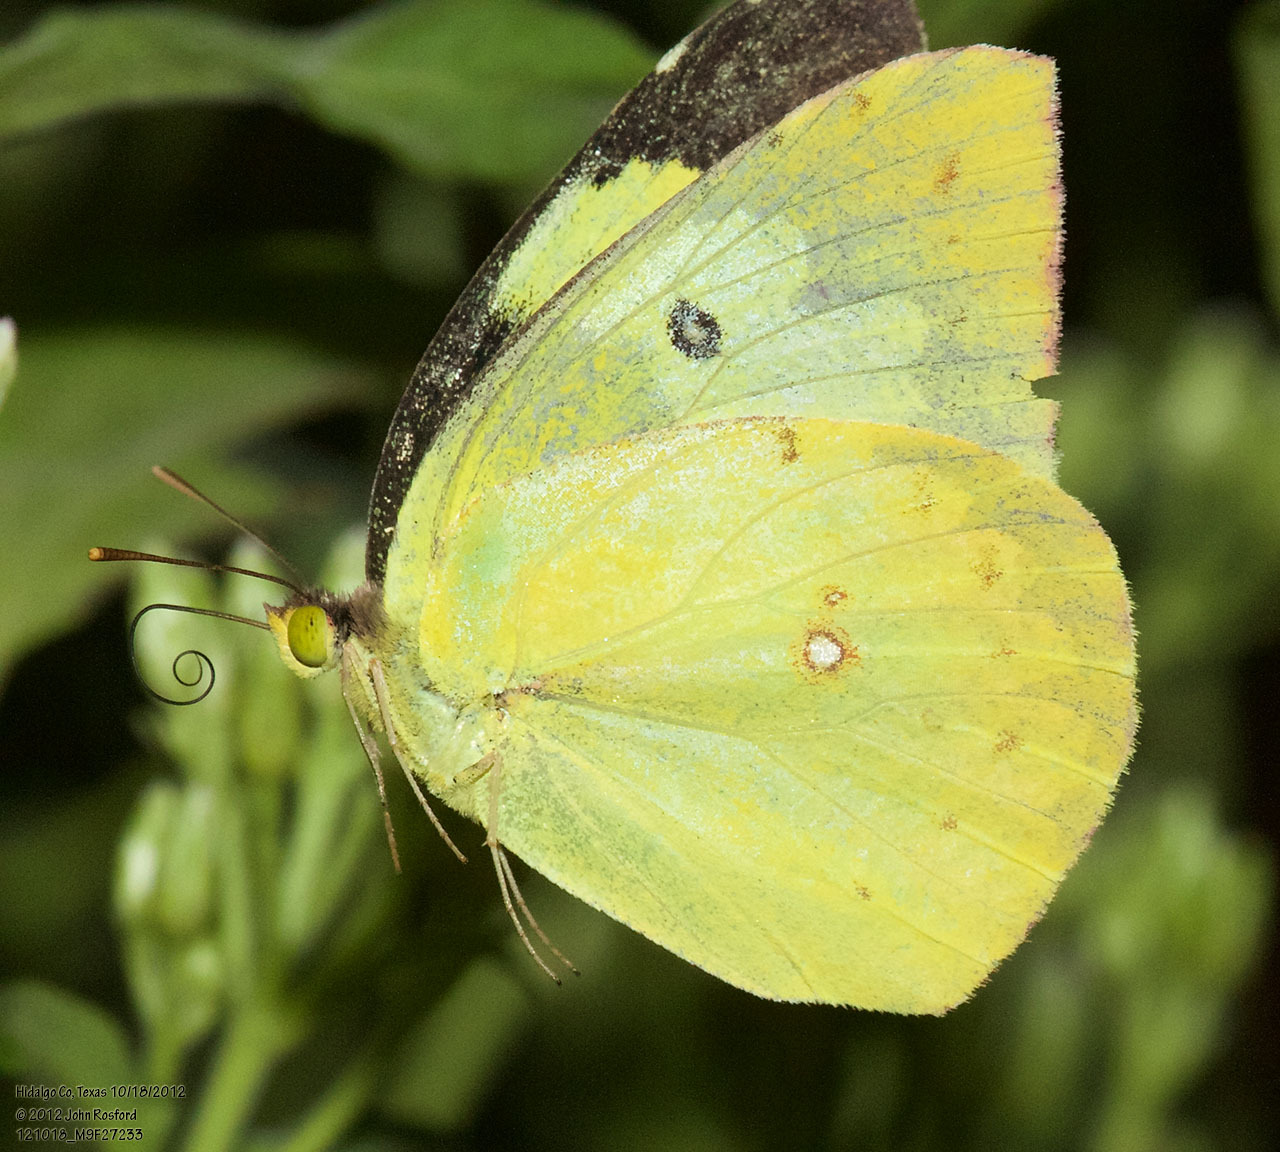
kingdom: Animalia
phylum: Arthropoda
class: Insecta
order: Lepidoptera
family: Pieridae
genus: Zerene
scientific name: Zerene cesonia
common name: Southern dogface
